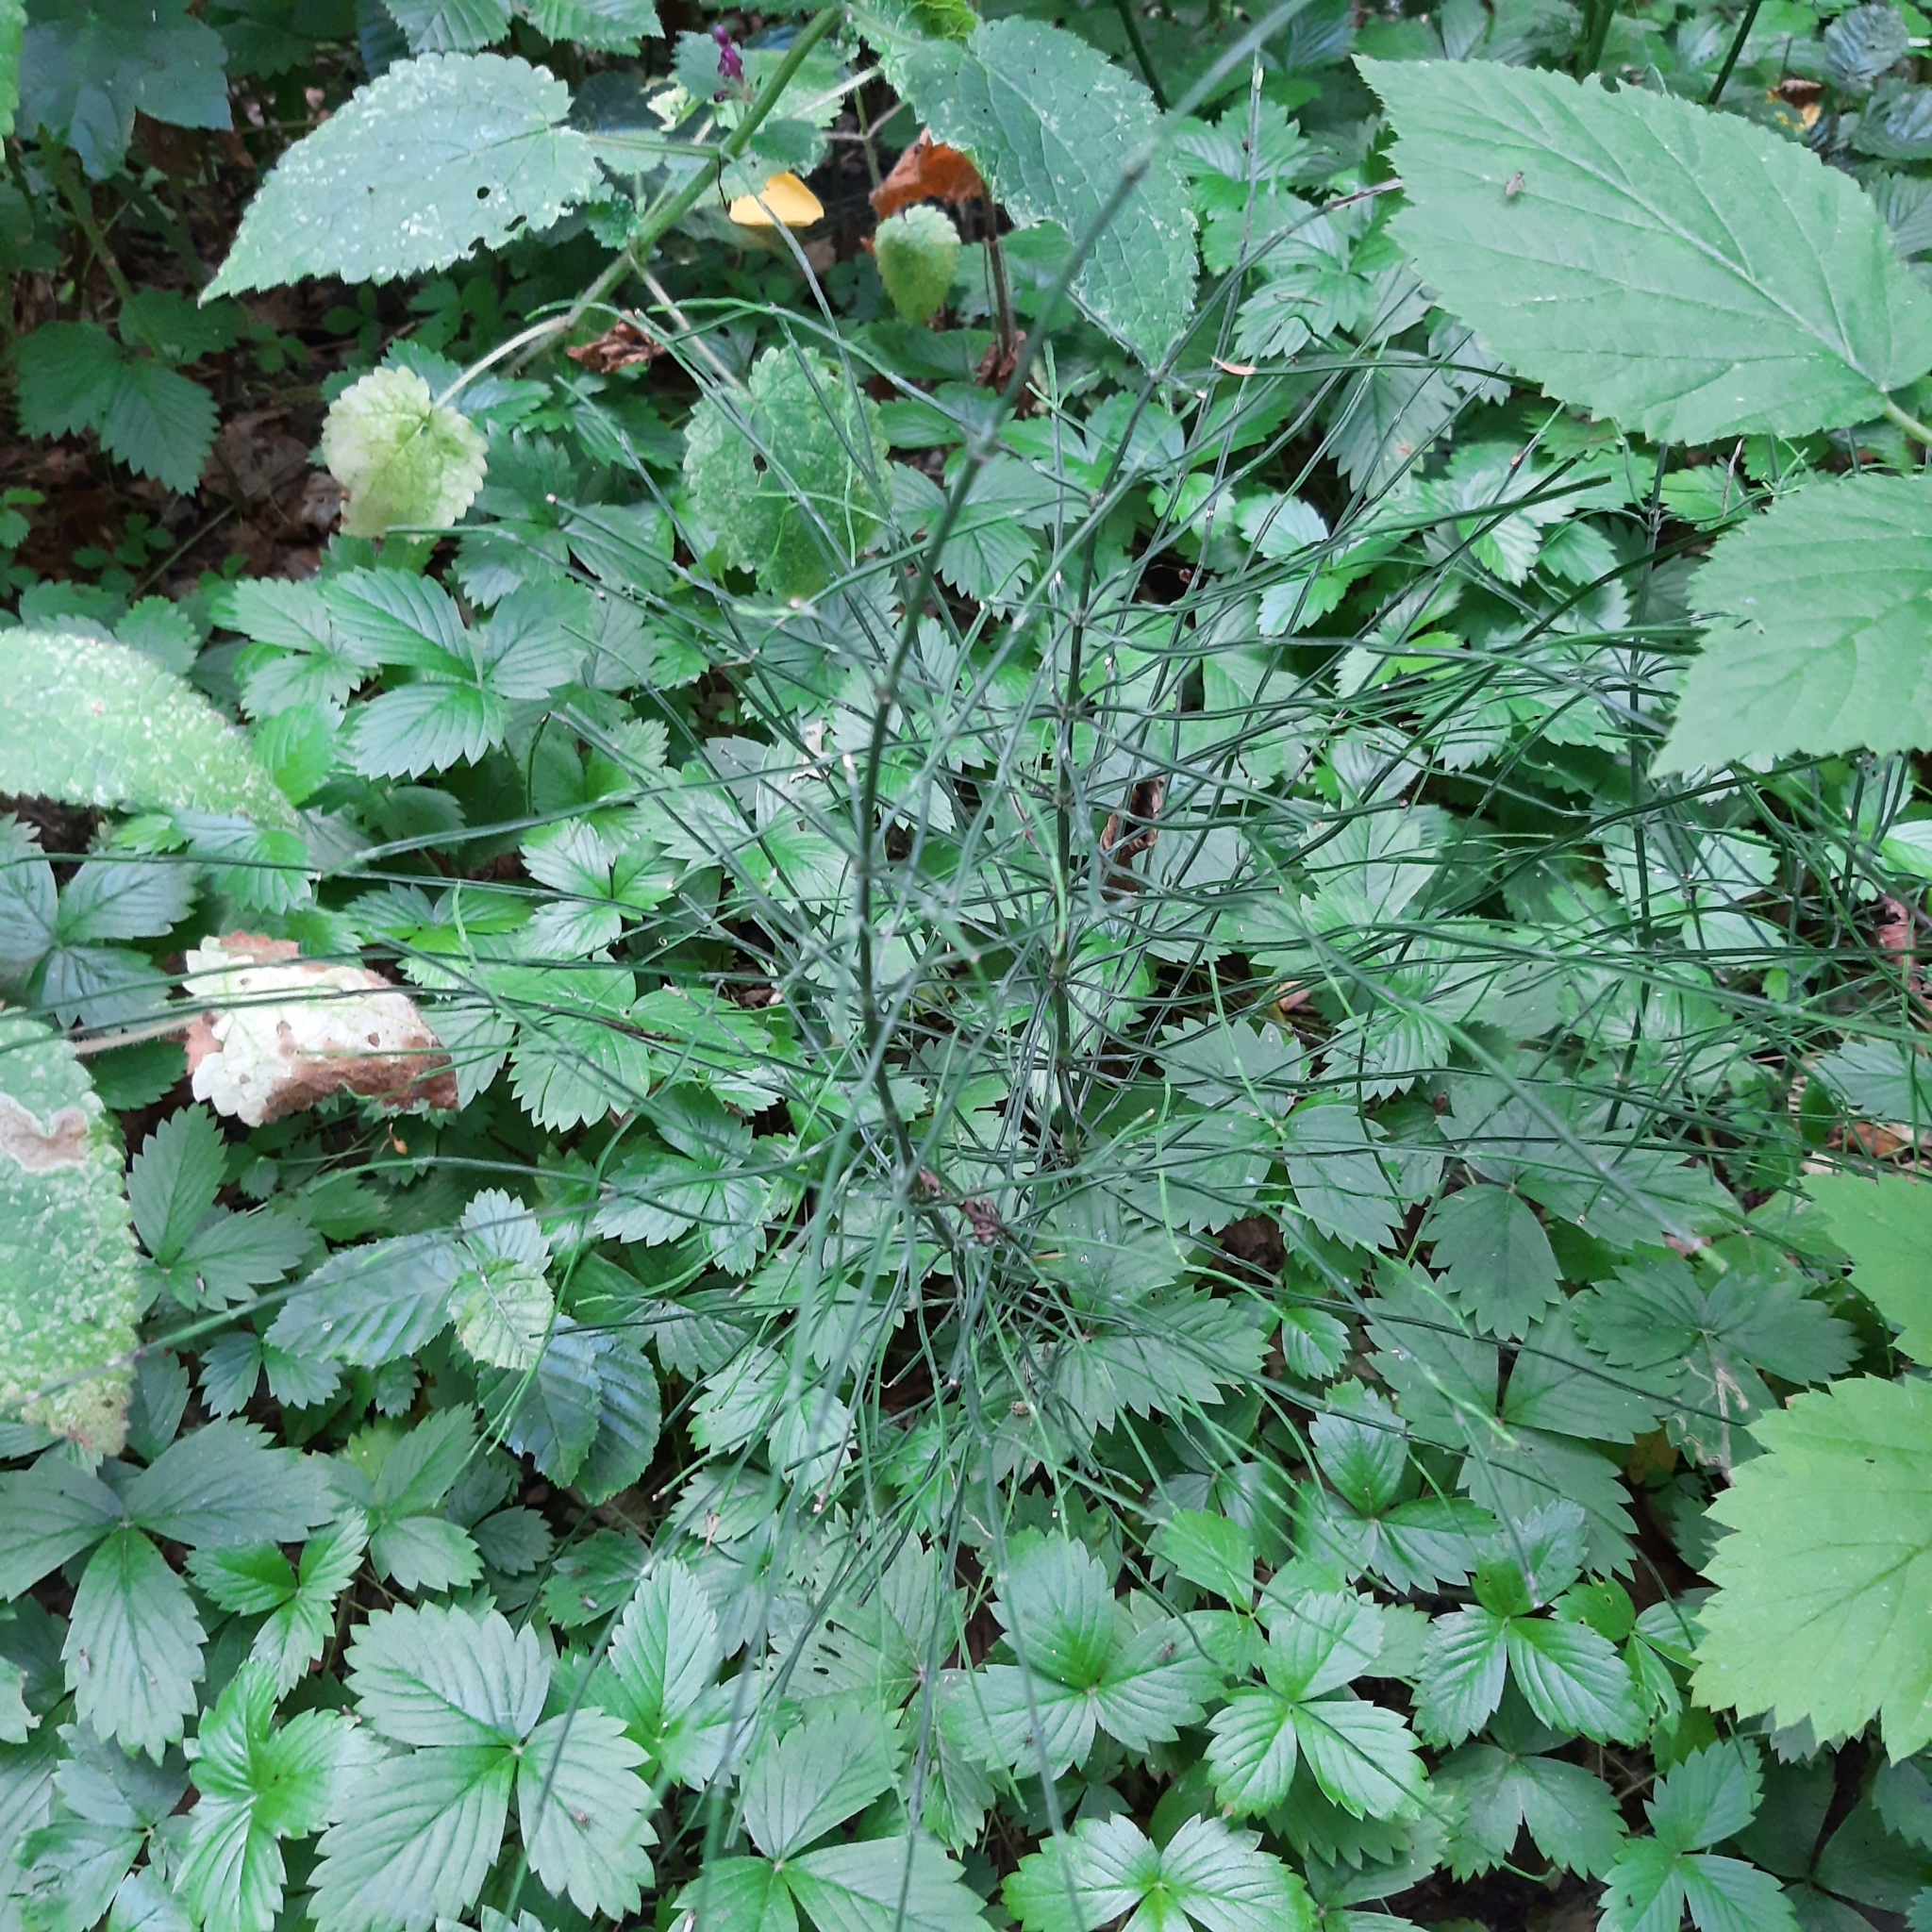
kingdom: Plantae
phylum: Tracheophyta
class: Polypodiopsida
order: Equisetales
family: Equisetaceae
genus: Equisetum
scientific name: Equisetum arvense
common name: Field horsetail
